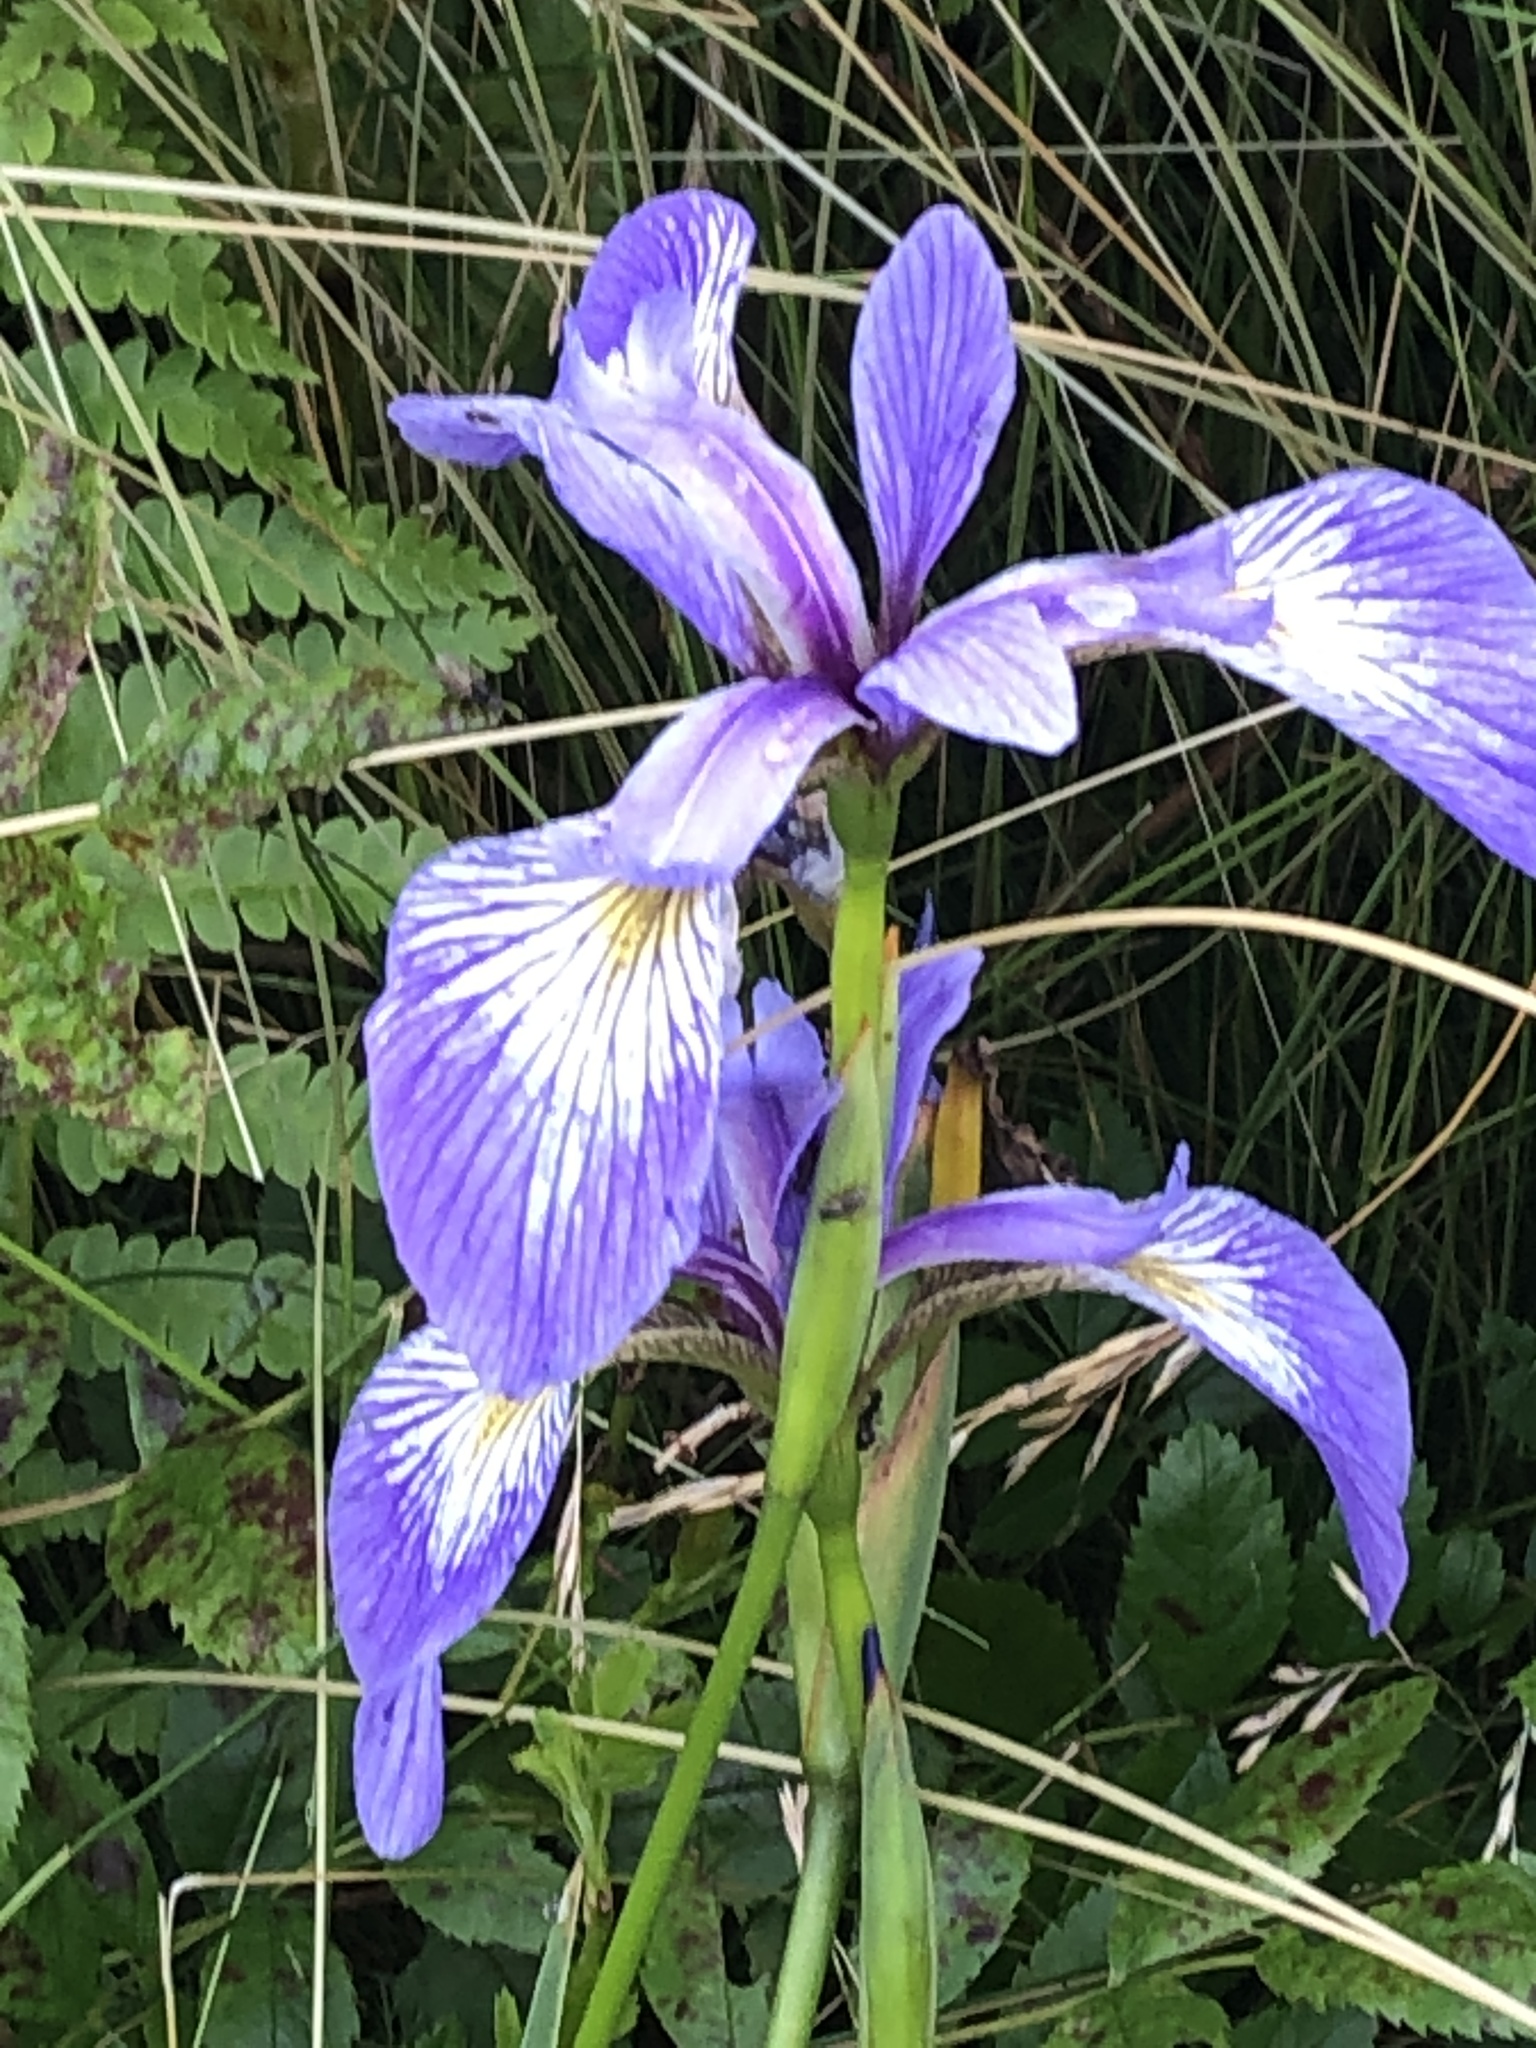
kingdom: Plantae
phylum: Tracheophyta
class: Liliopsida
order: Asparagales
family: Iridaceae
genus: Iris
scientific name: Iris versicolor
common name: Purple iris
